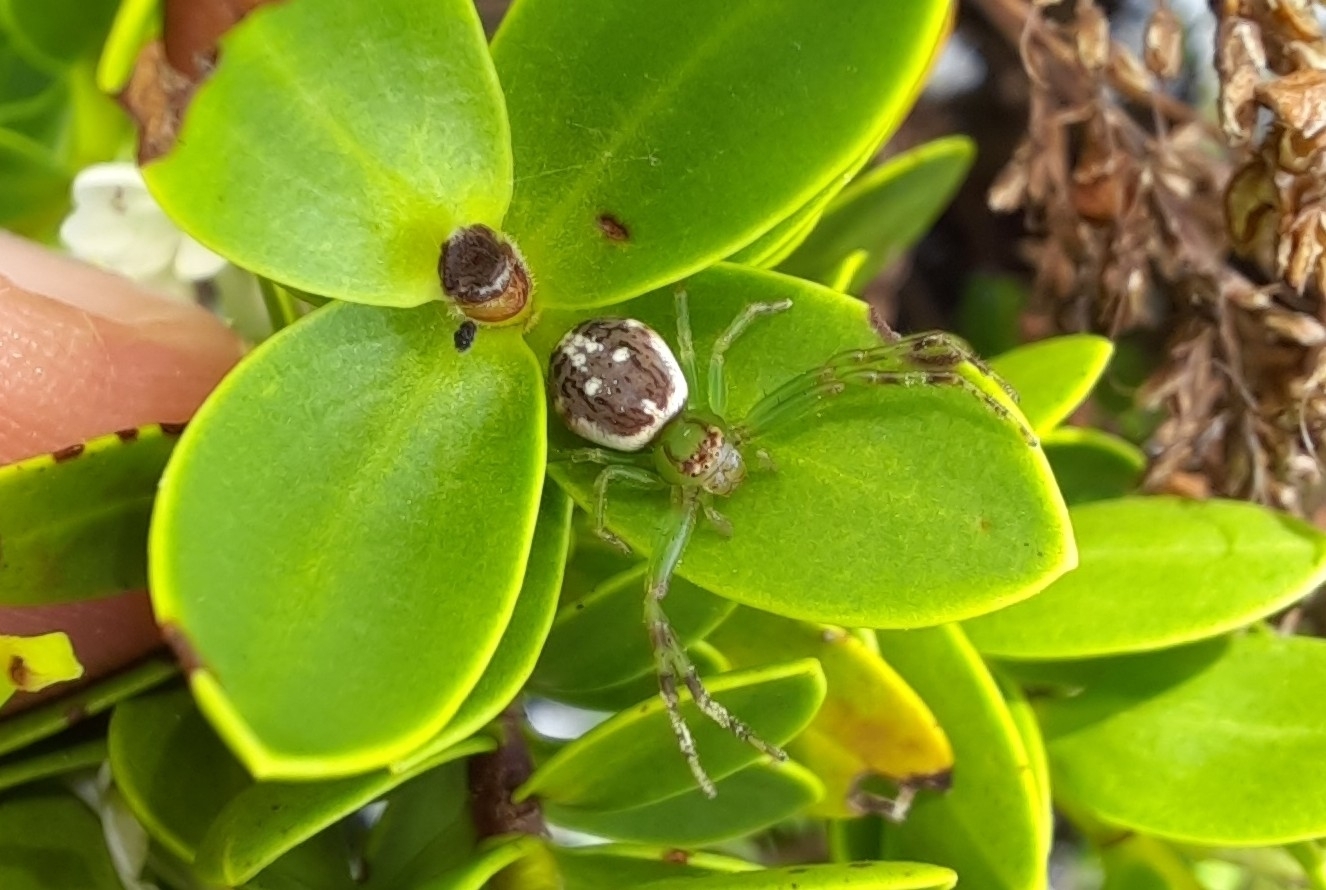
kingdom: Animalia
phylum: Arthropoda
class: Arachnida
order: Araneae
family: Thomisidae
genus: Diaea
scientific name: Diaea ambara
